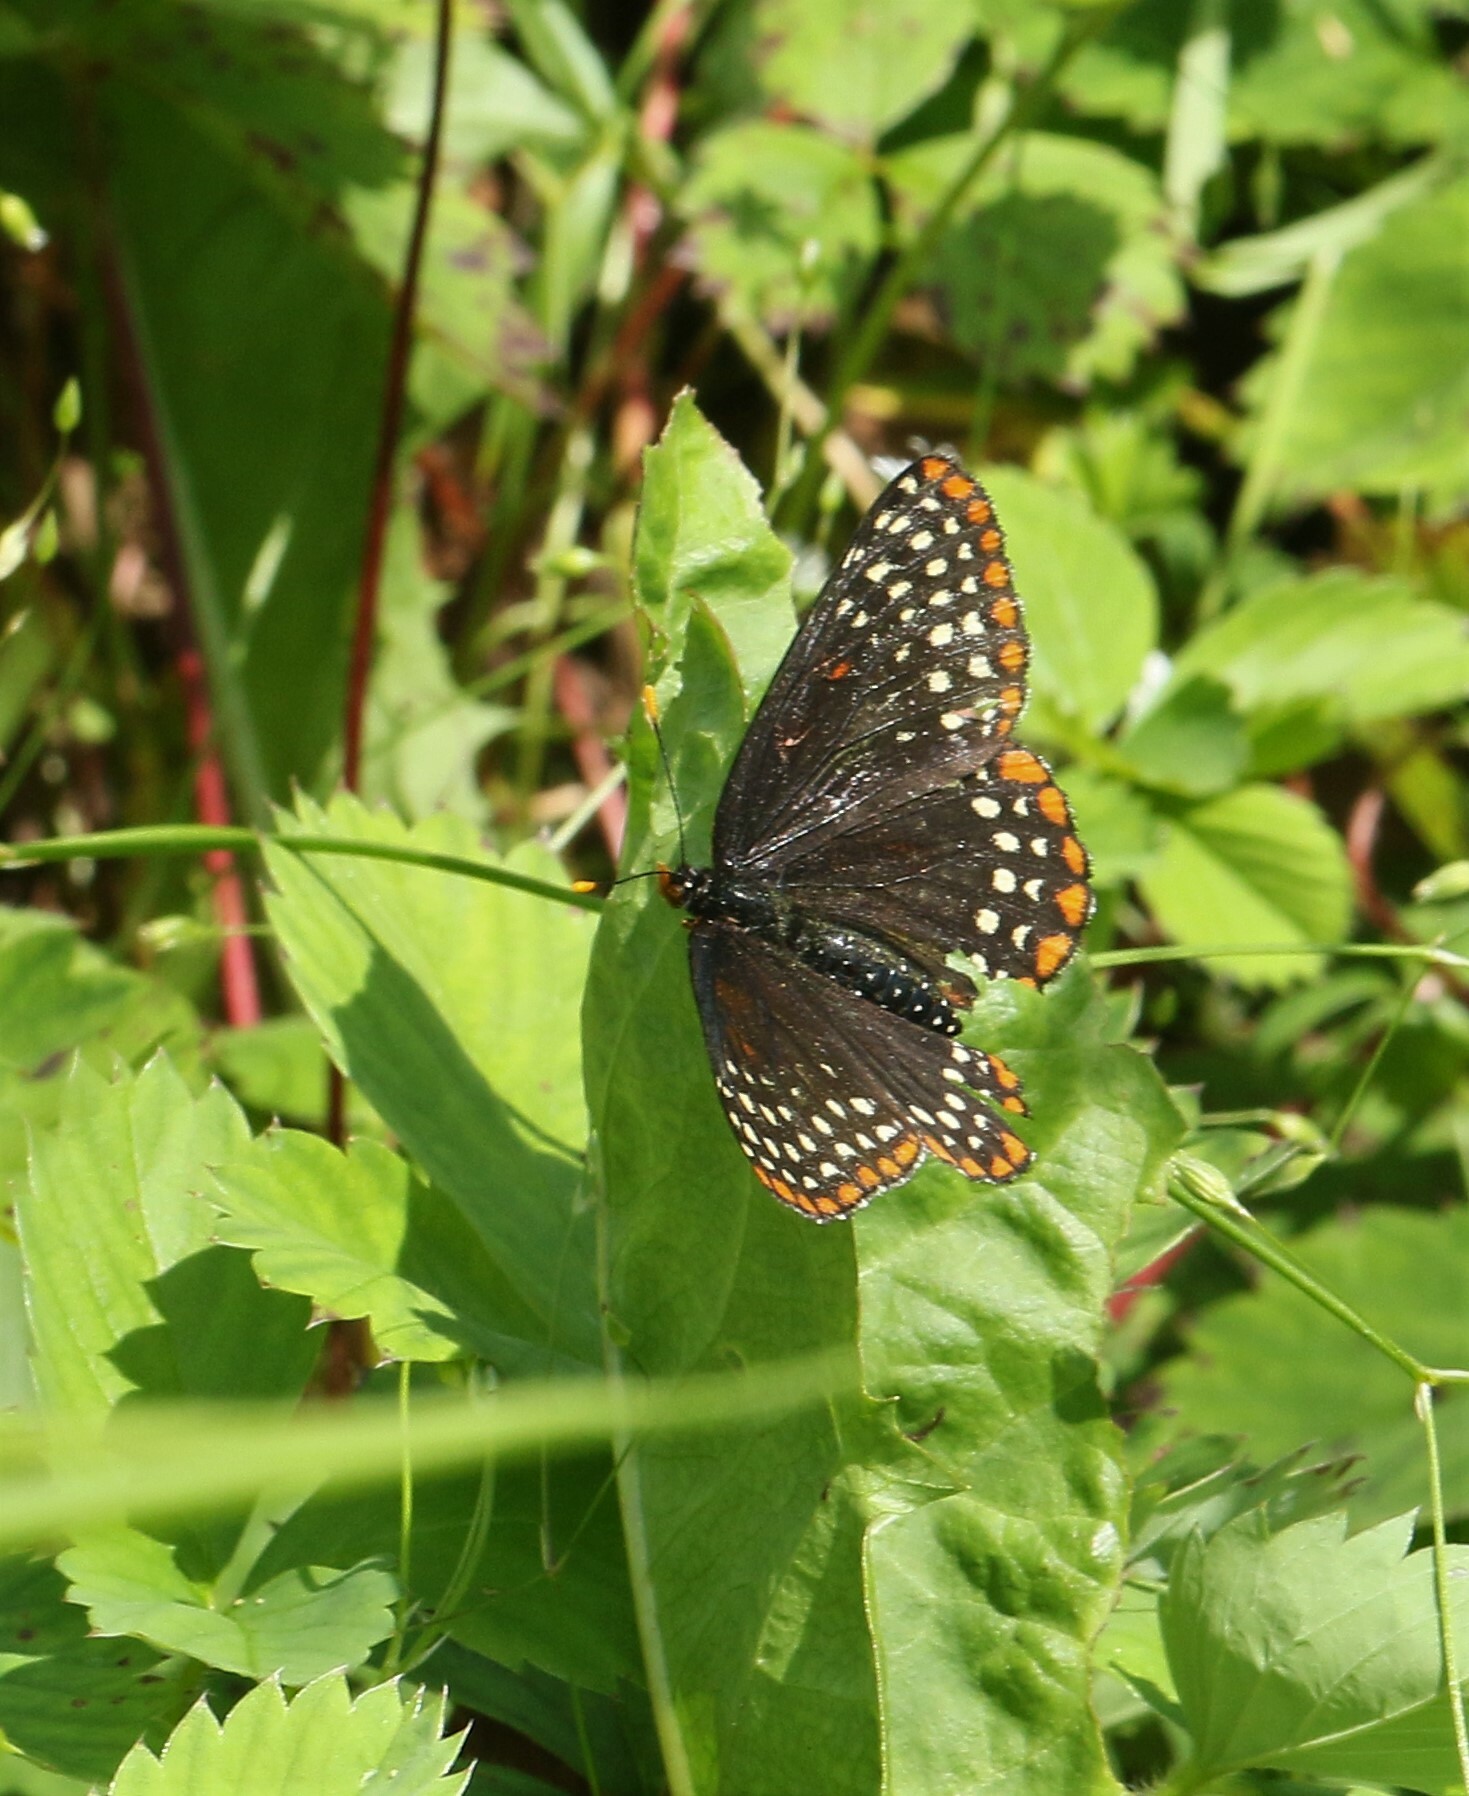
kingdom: Animalia
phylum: Arthropoda
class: Insecta
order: Lepidoptera
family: Nymphalidae
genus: Euphydryas
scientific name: Euphydryas phaeton
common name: Baltimore checkerspot
